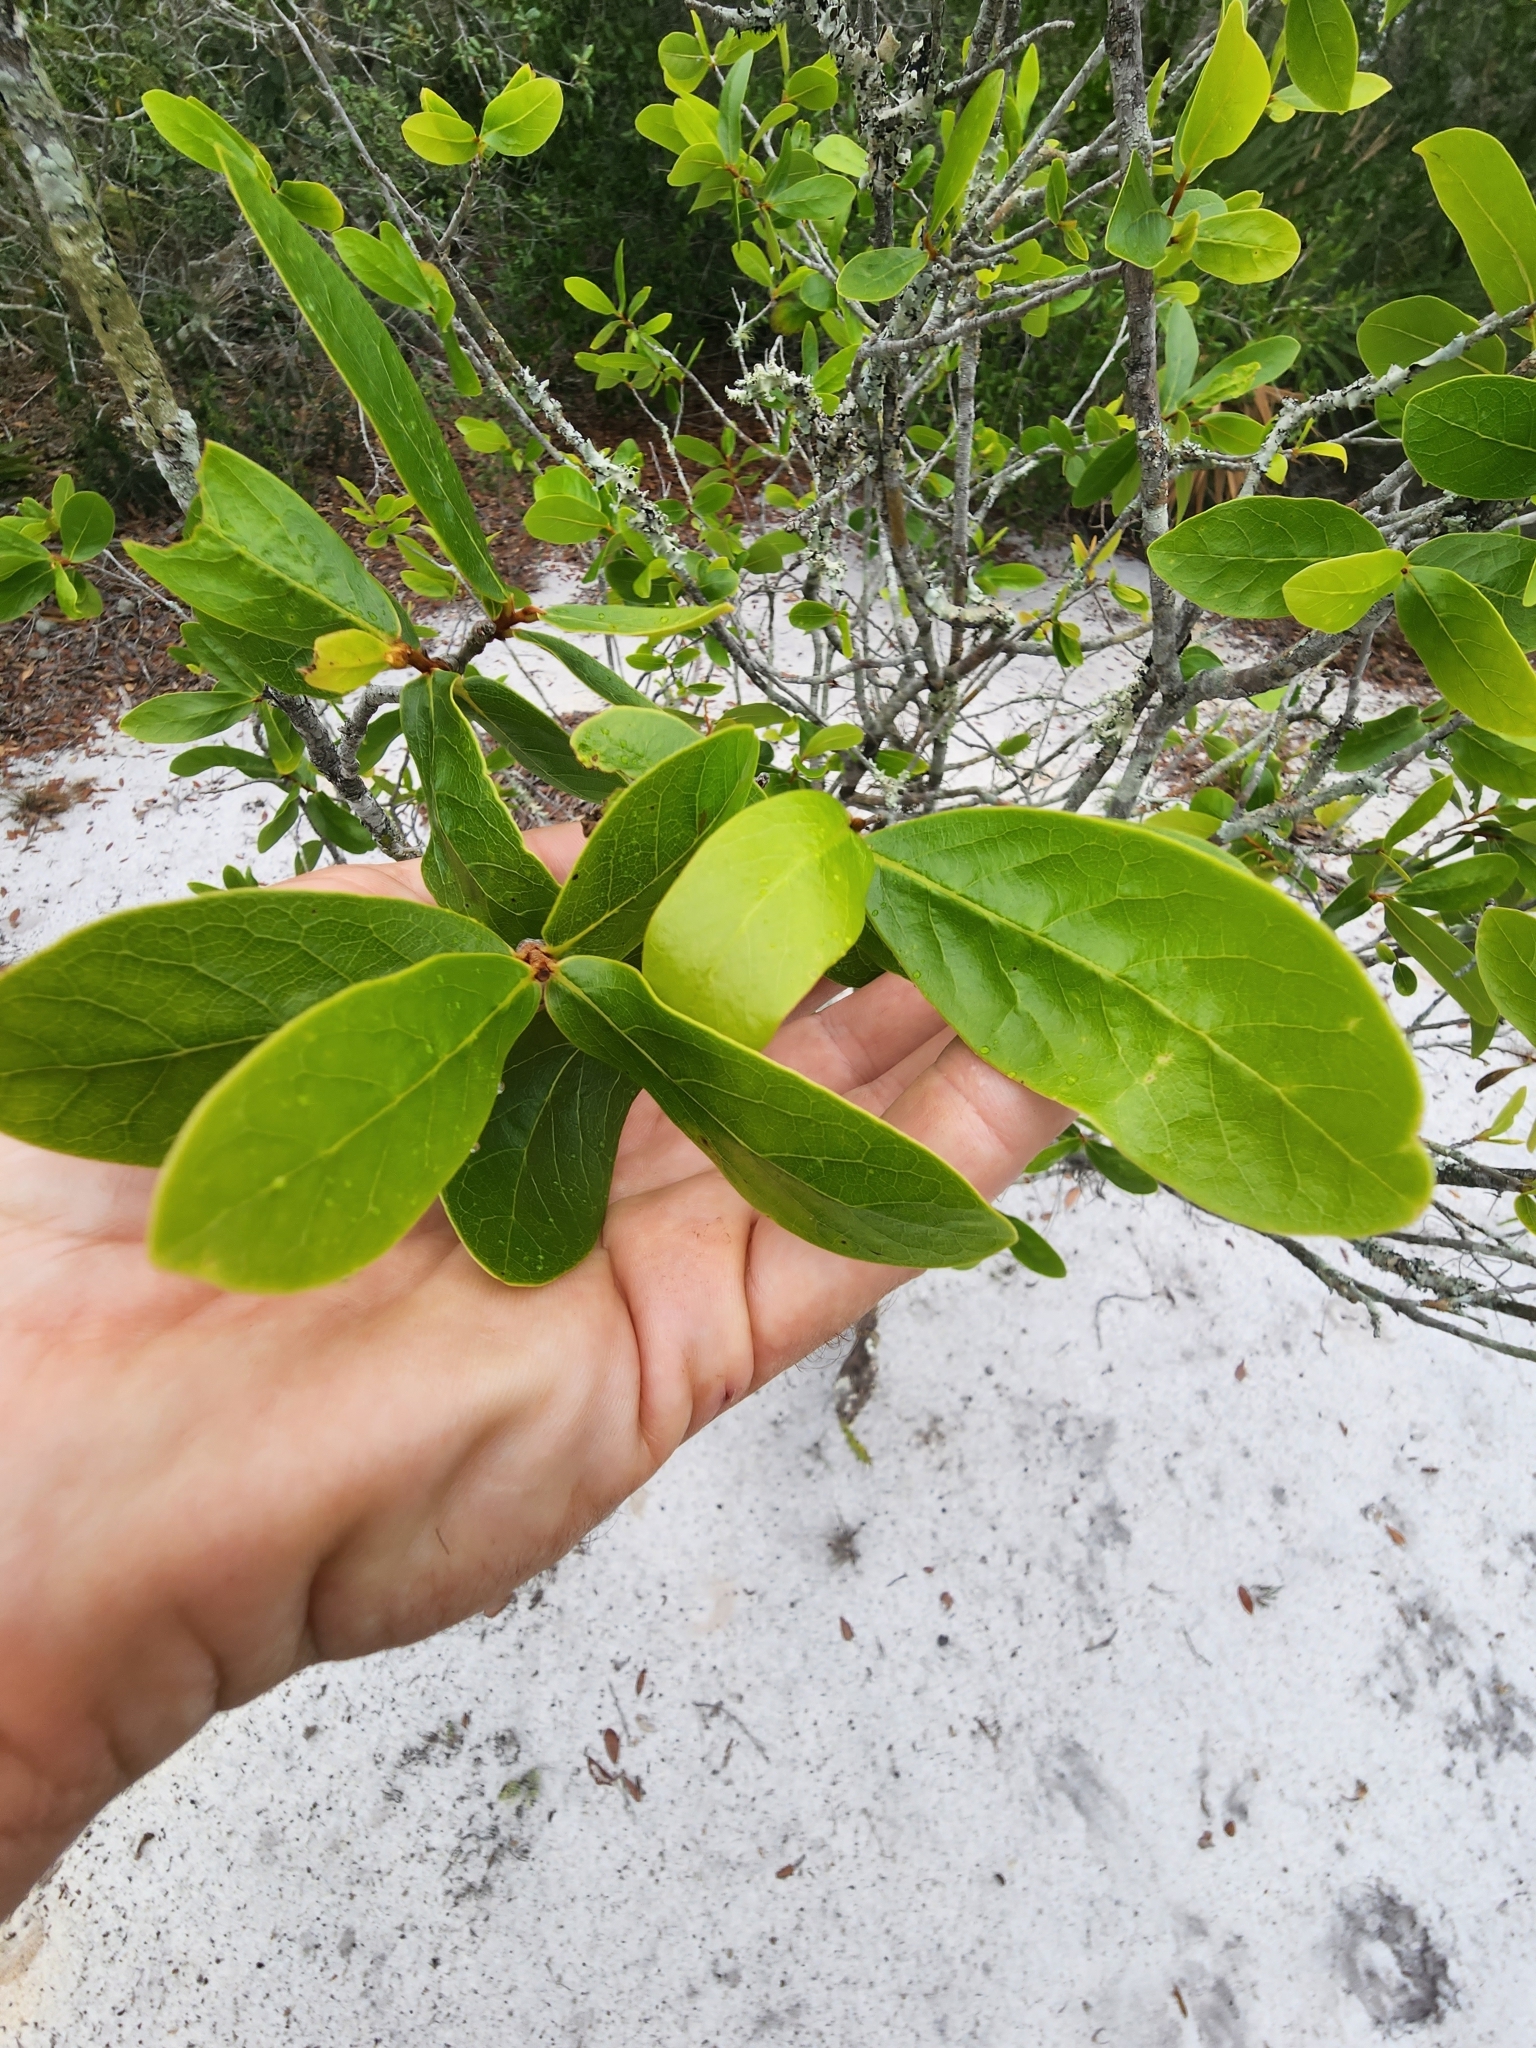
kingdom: Plantae
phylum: Tracheophyta
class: Magnoliopsida
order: Magnoliales
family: Annonaceae
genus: Asimina
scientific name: Asimina obovata
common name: Flag pawpaw
